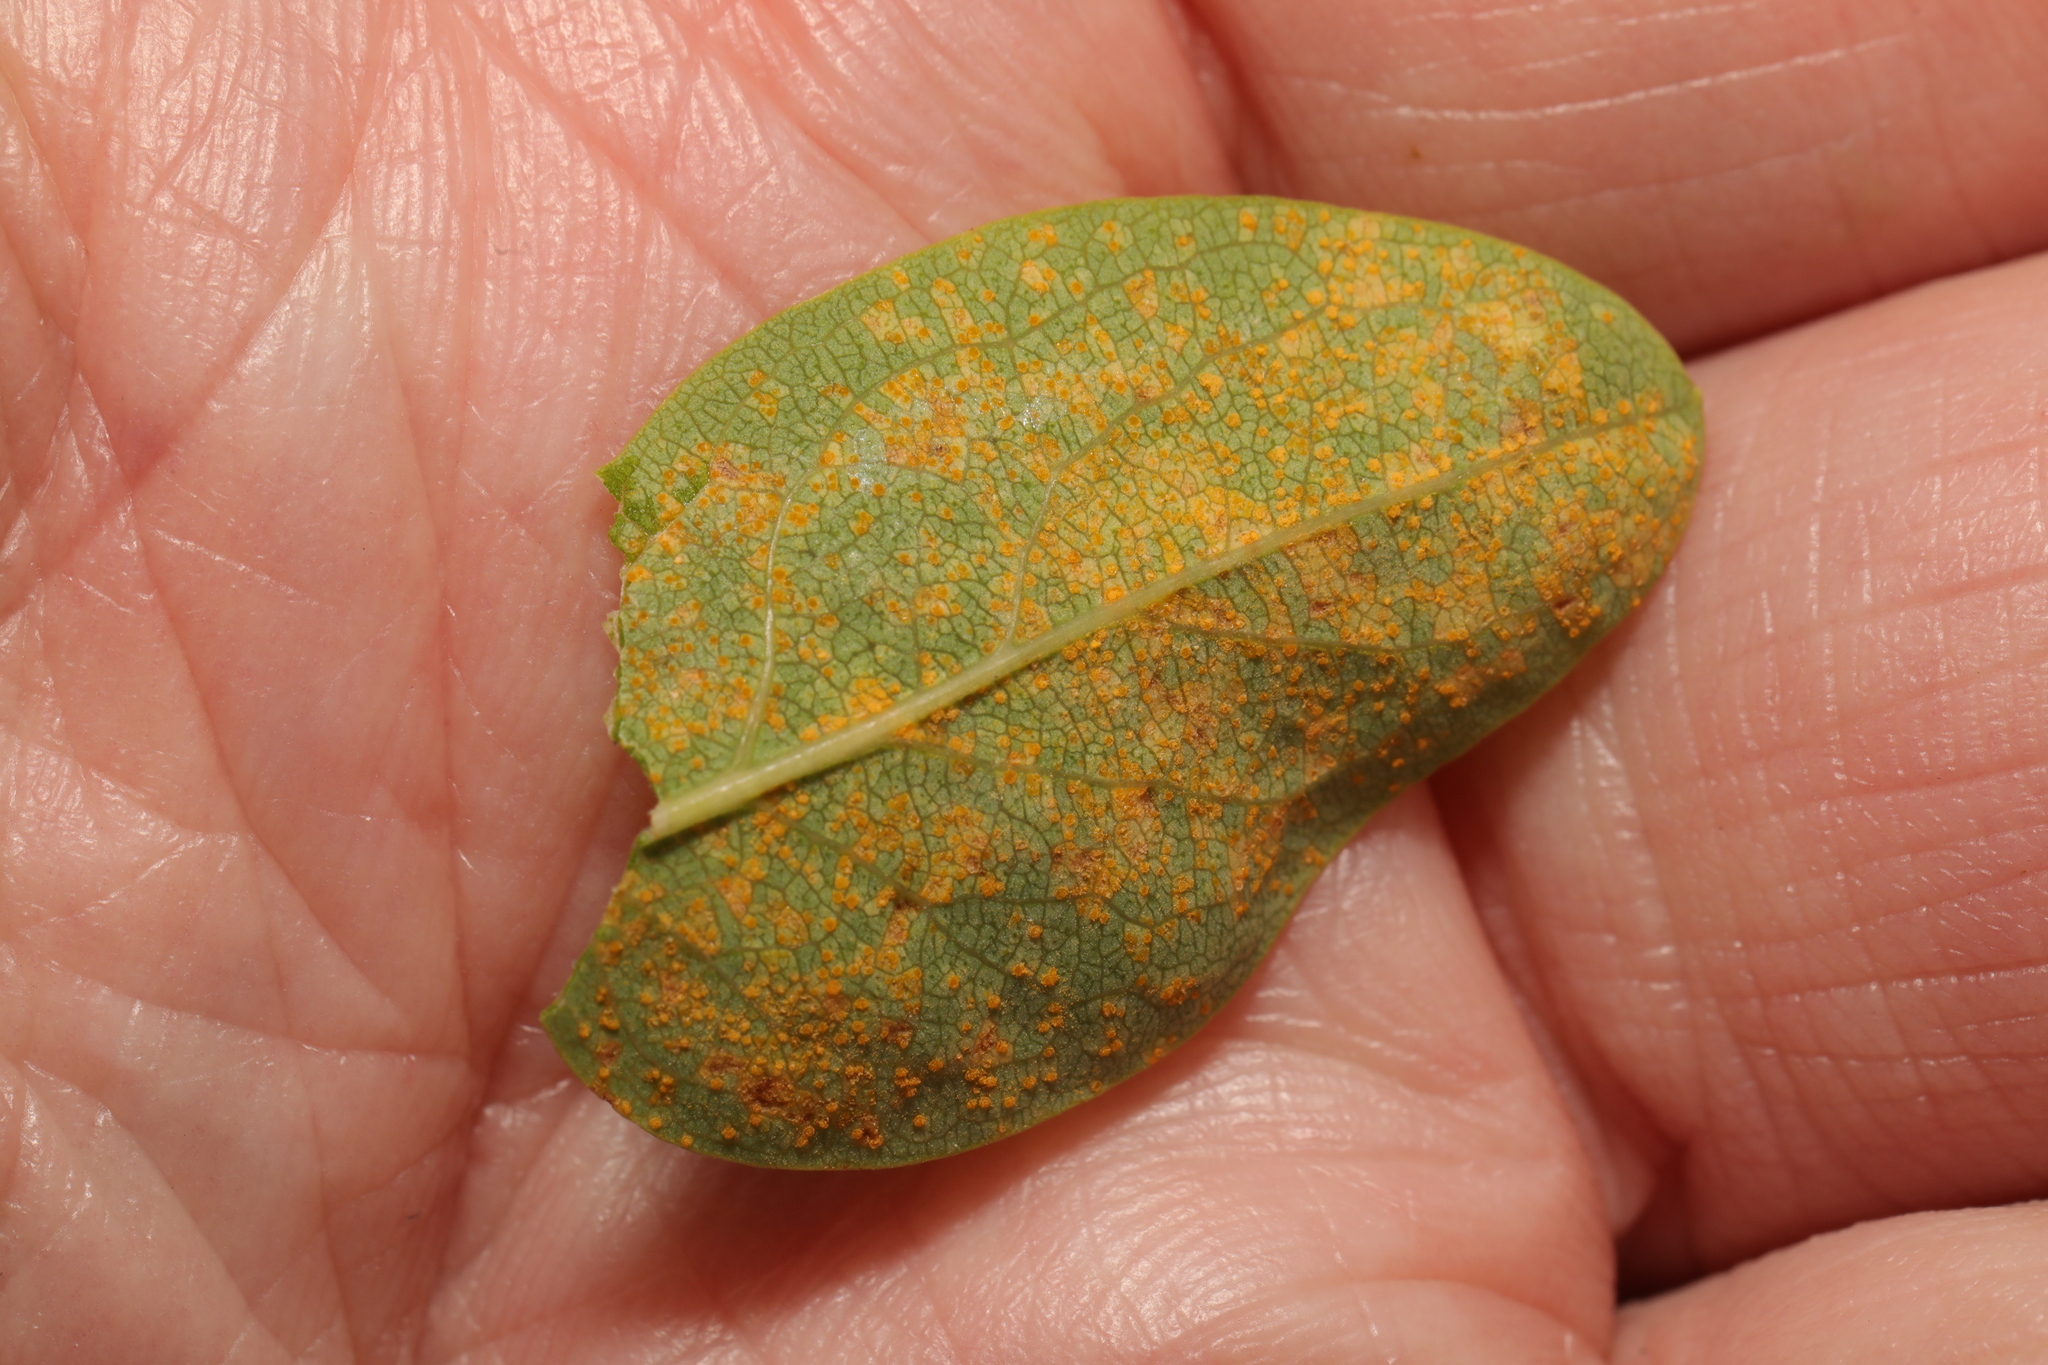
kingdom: Fungi
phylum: Basidiomycota
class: Pucciniomycetes
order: Pucciniales
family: Melampsoraceae
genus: Melampsora
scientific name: Melampsora hypericorum
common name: Tutsan rust
